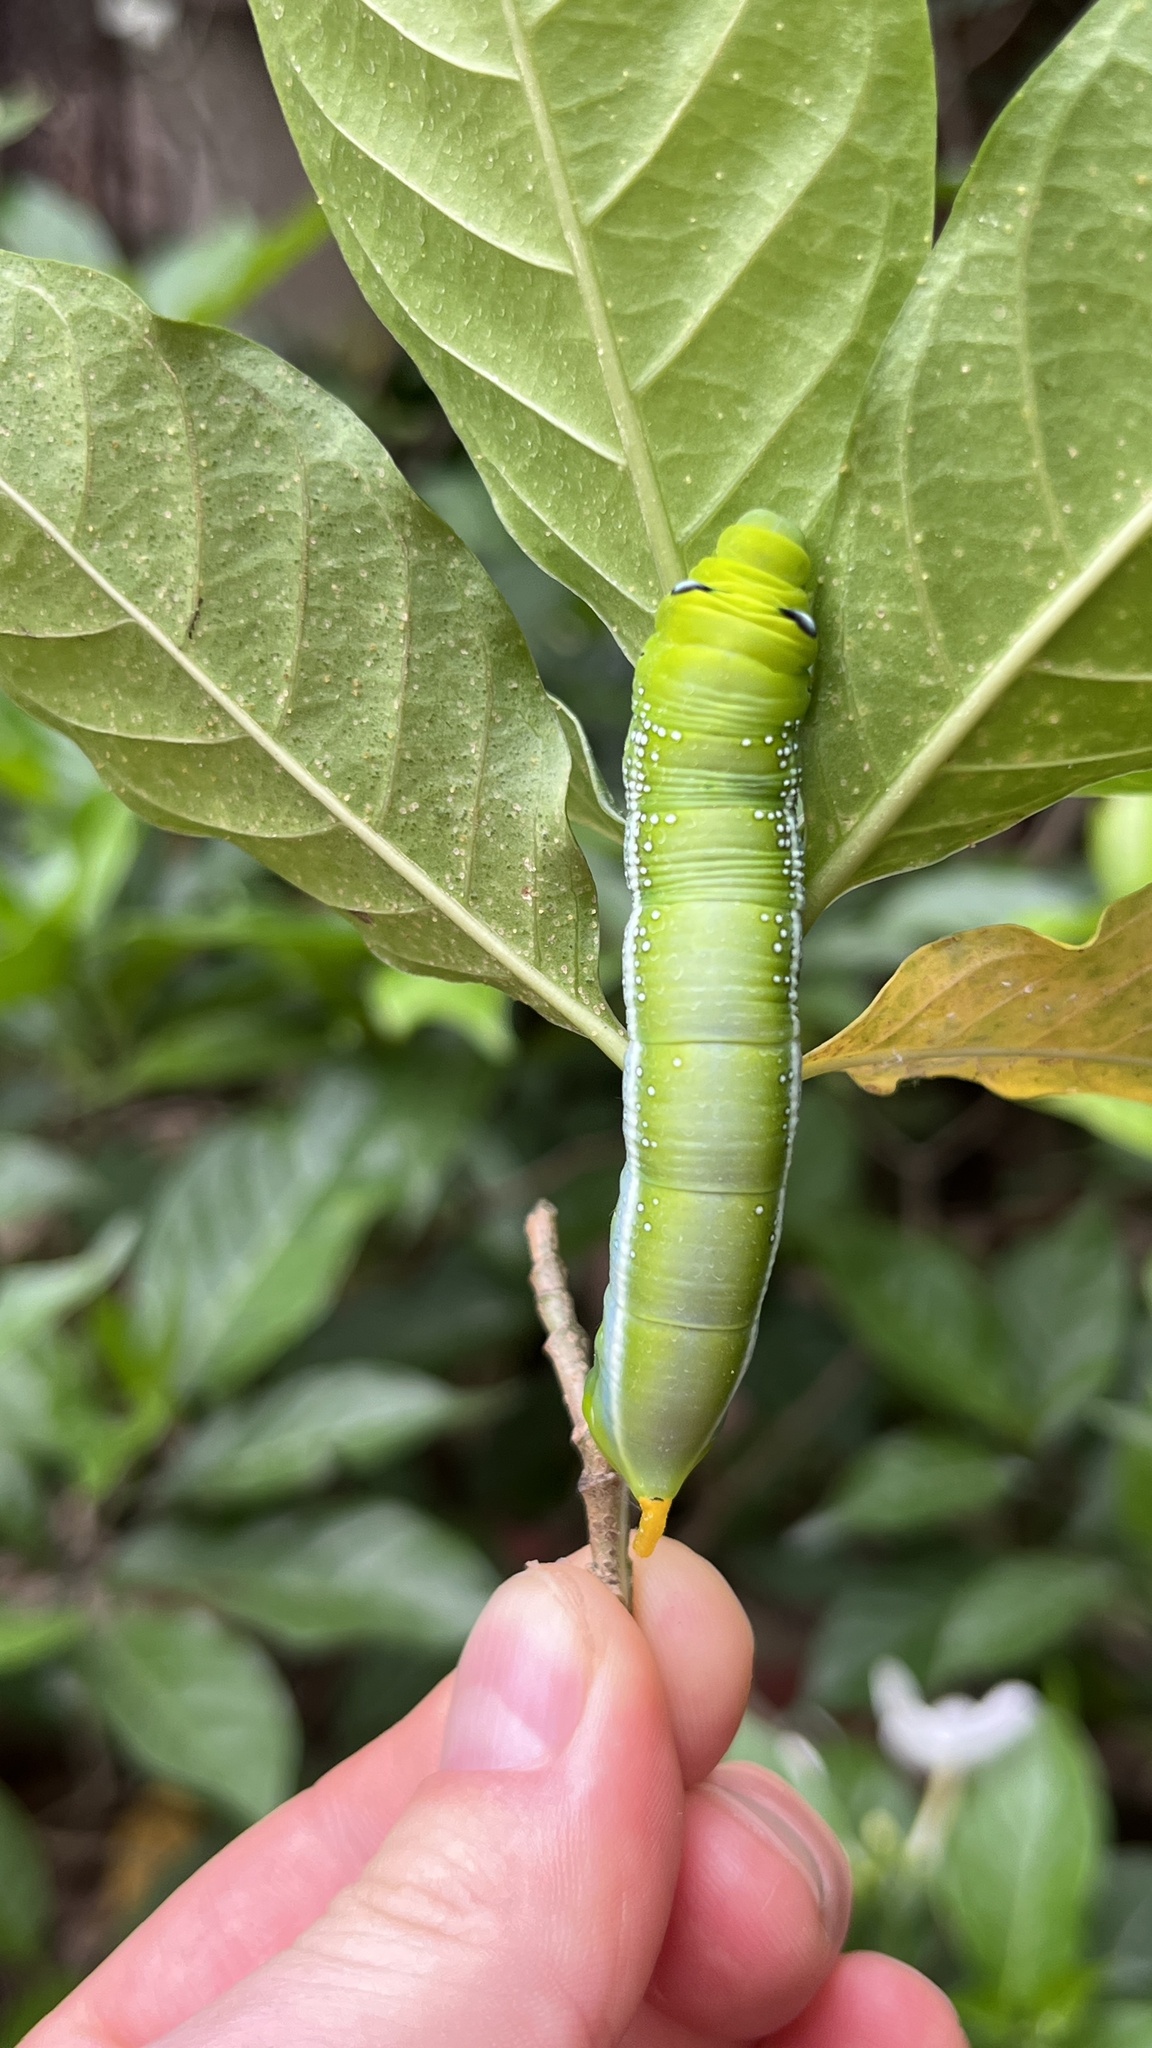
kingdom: Animalia
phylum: Arthropoda
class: Insecta
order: Lepidoptera
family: Sphingidae
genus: Daphnis
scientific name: Daphnis nerii
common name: Oleander hawk-moth
